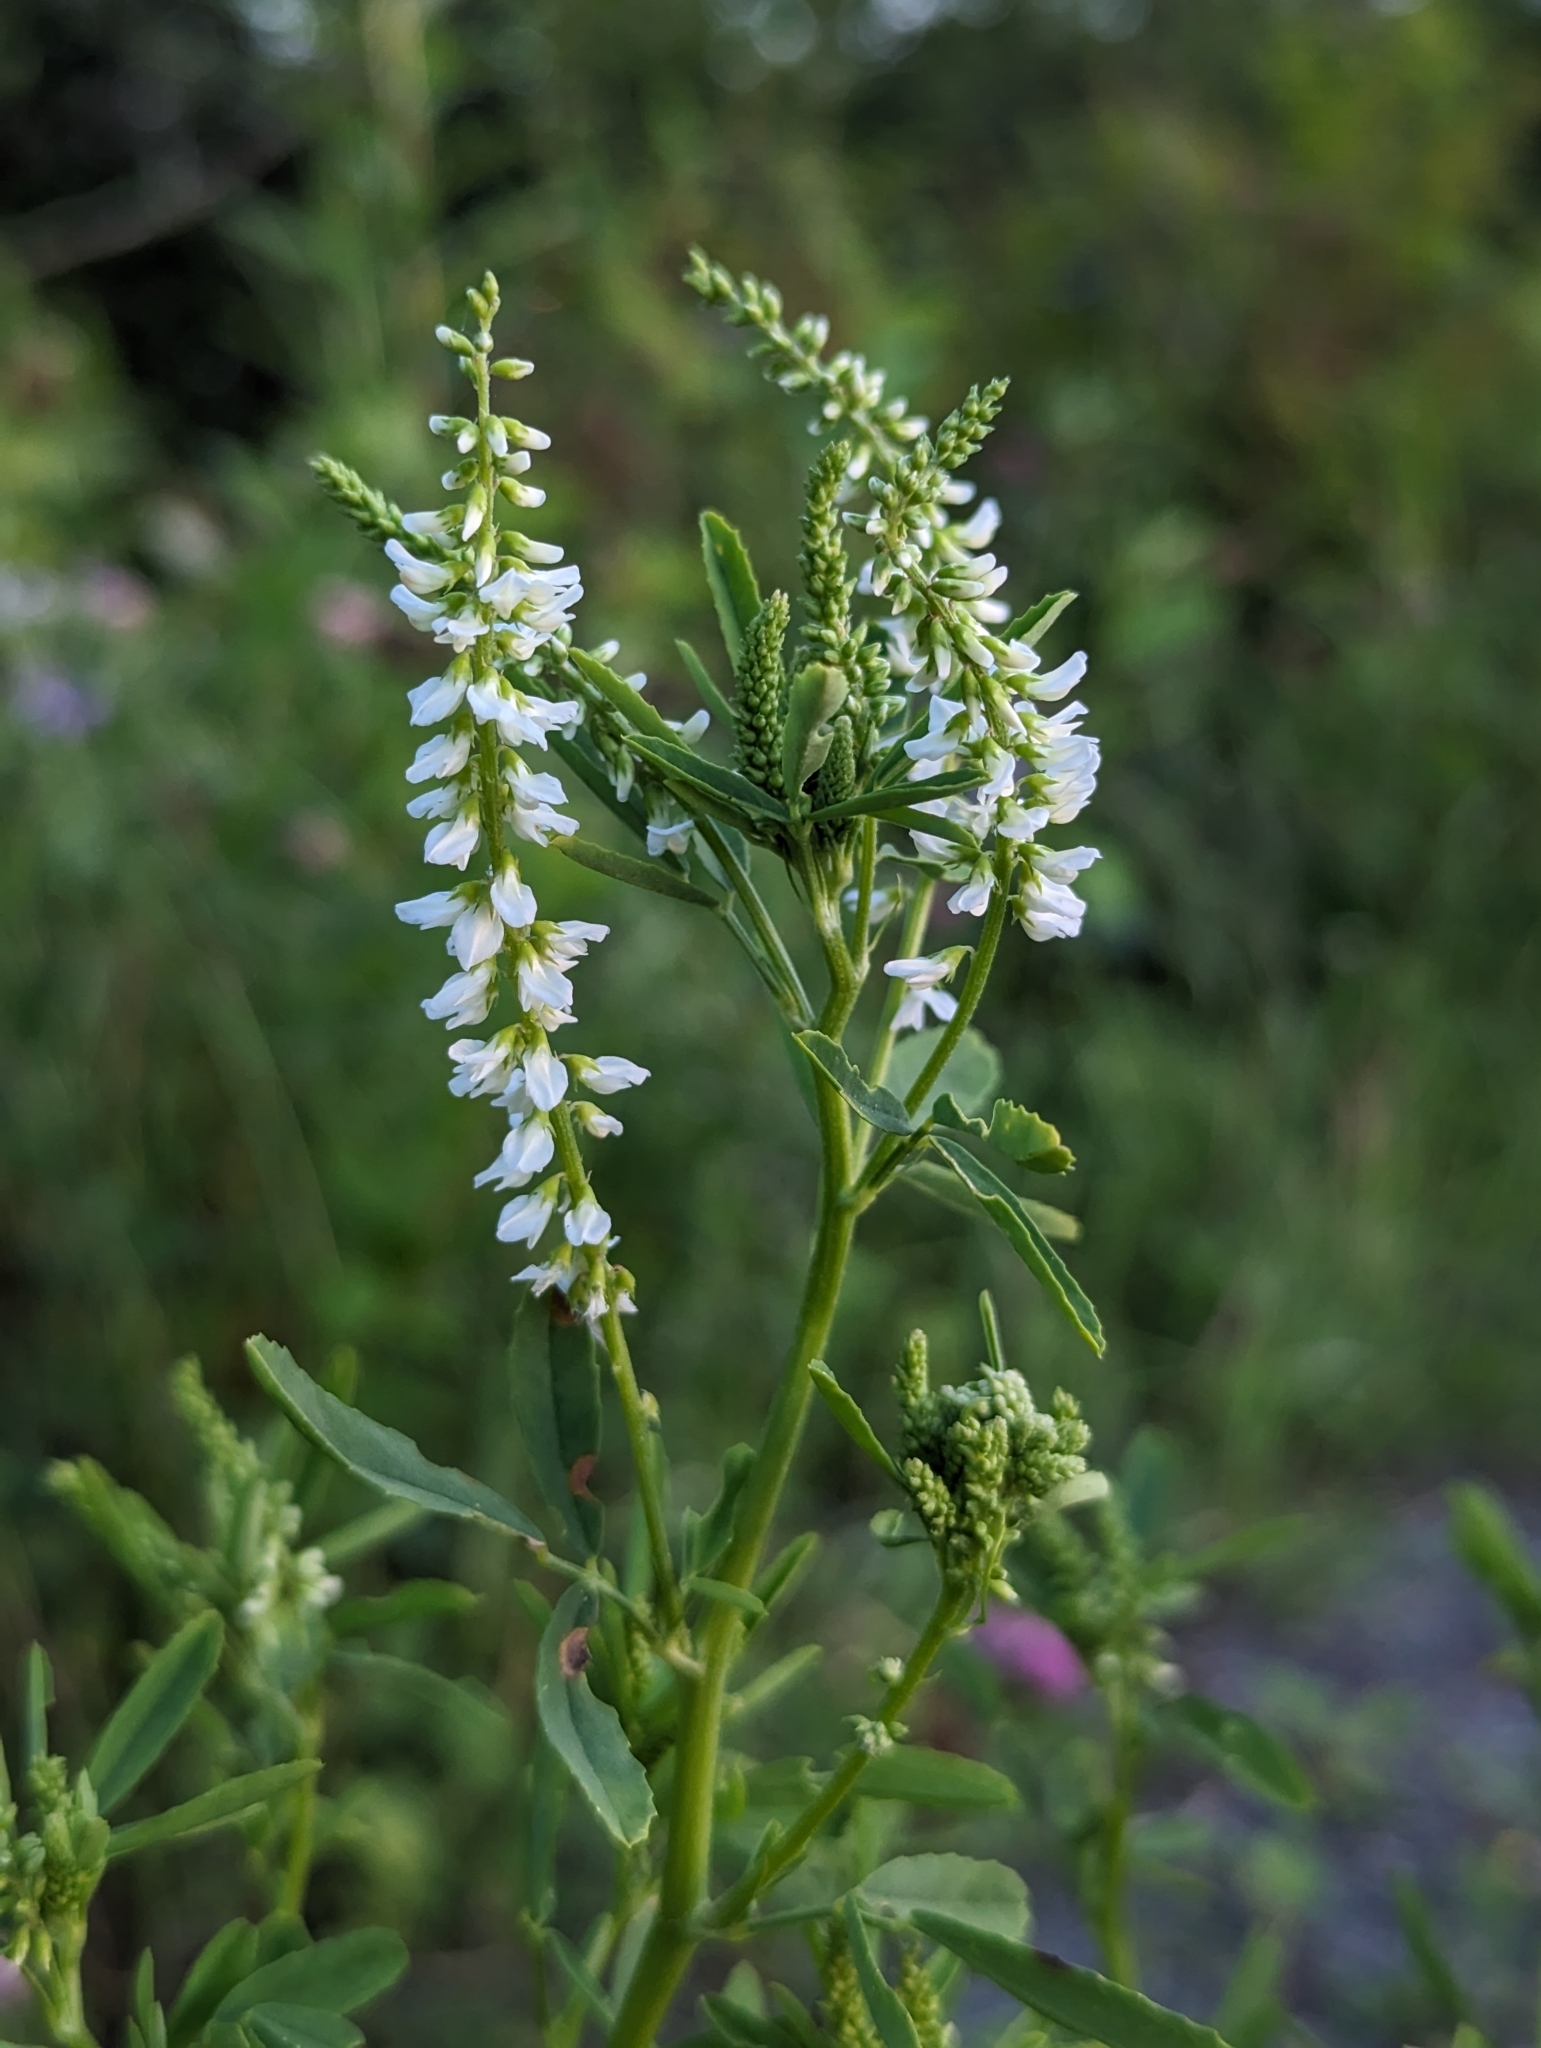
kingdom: Plantae
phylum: Tracheophyta
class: Magnoliopsida
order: Fabales
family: Fabaceae
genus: Melilotus
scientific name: Melilotus albus
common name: White melilot
